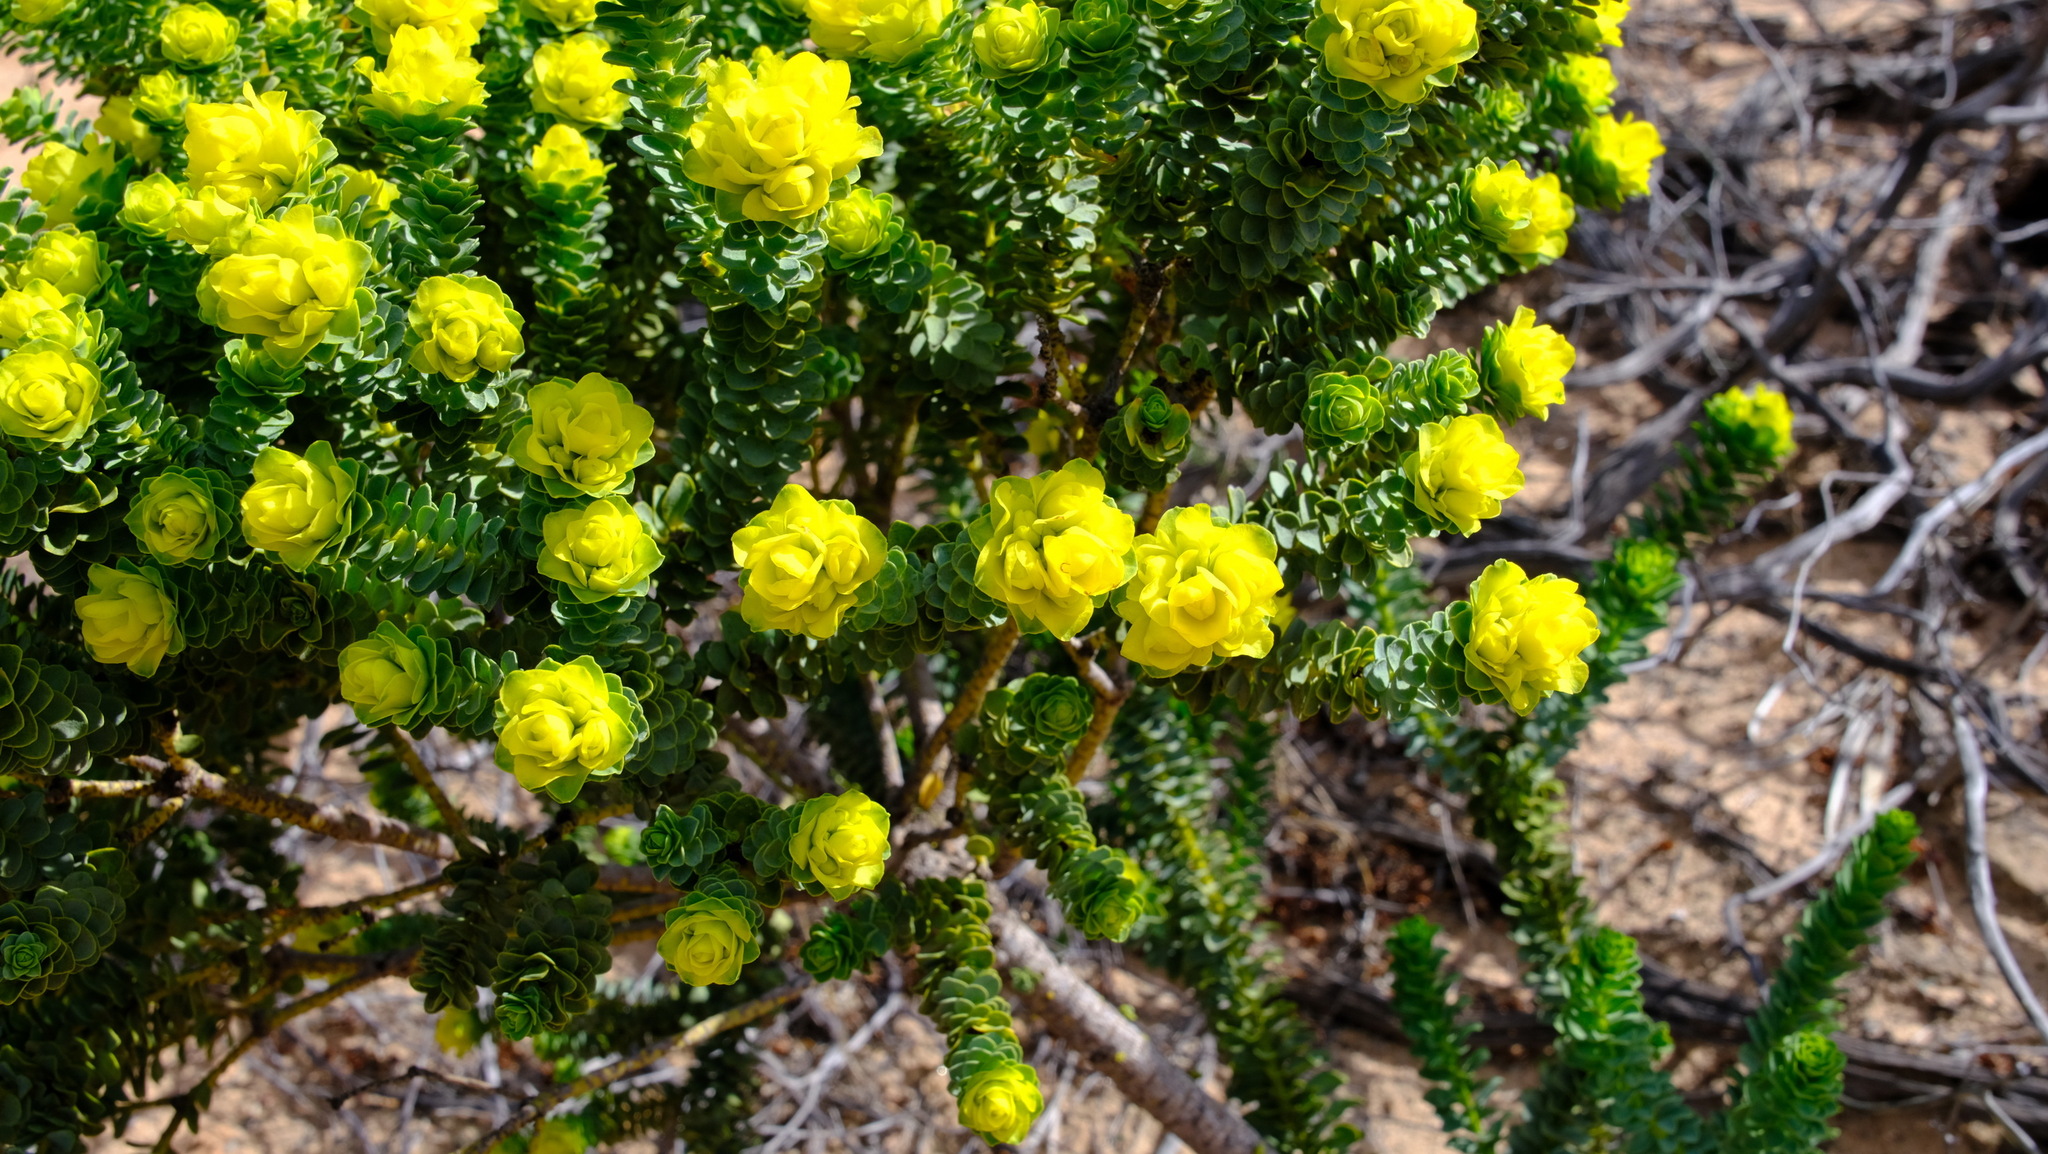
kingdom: Plantae
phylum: Tracheophyta
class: Magnoliopsida
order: Sapindales
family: Rutaceae
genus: Geleznowia
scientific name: Geleznowia amabilis
